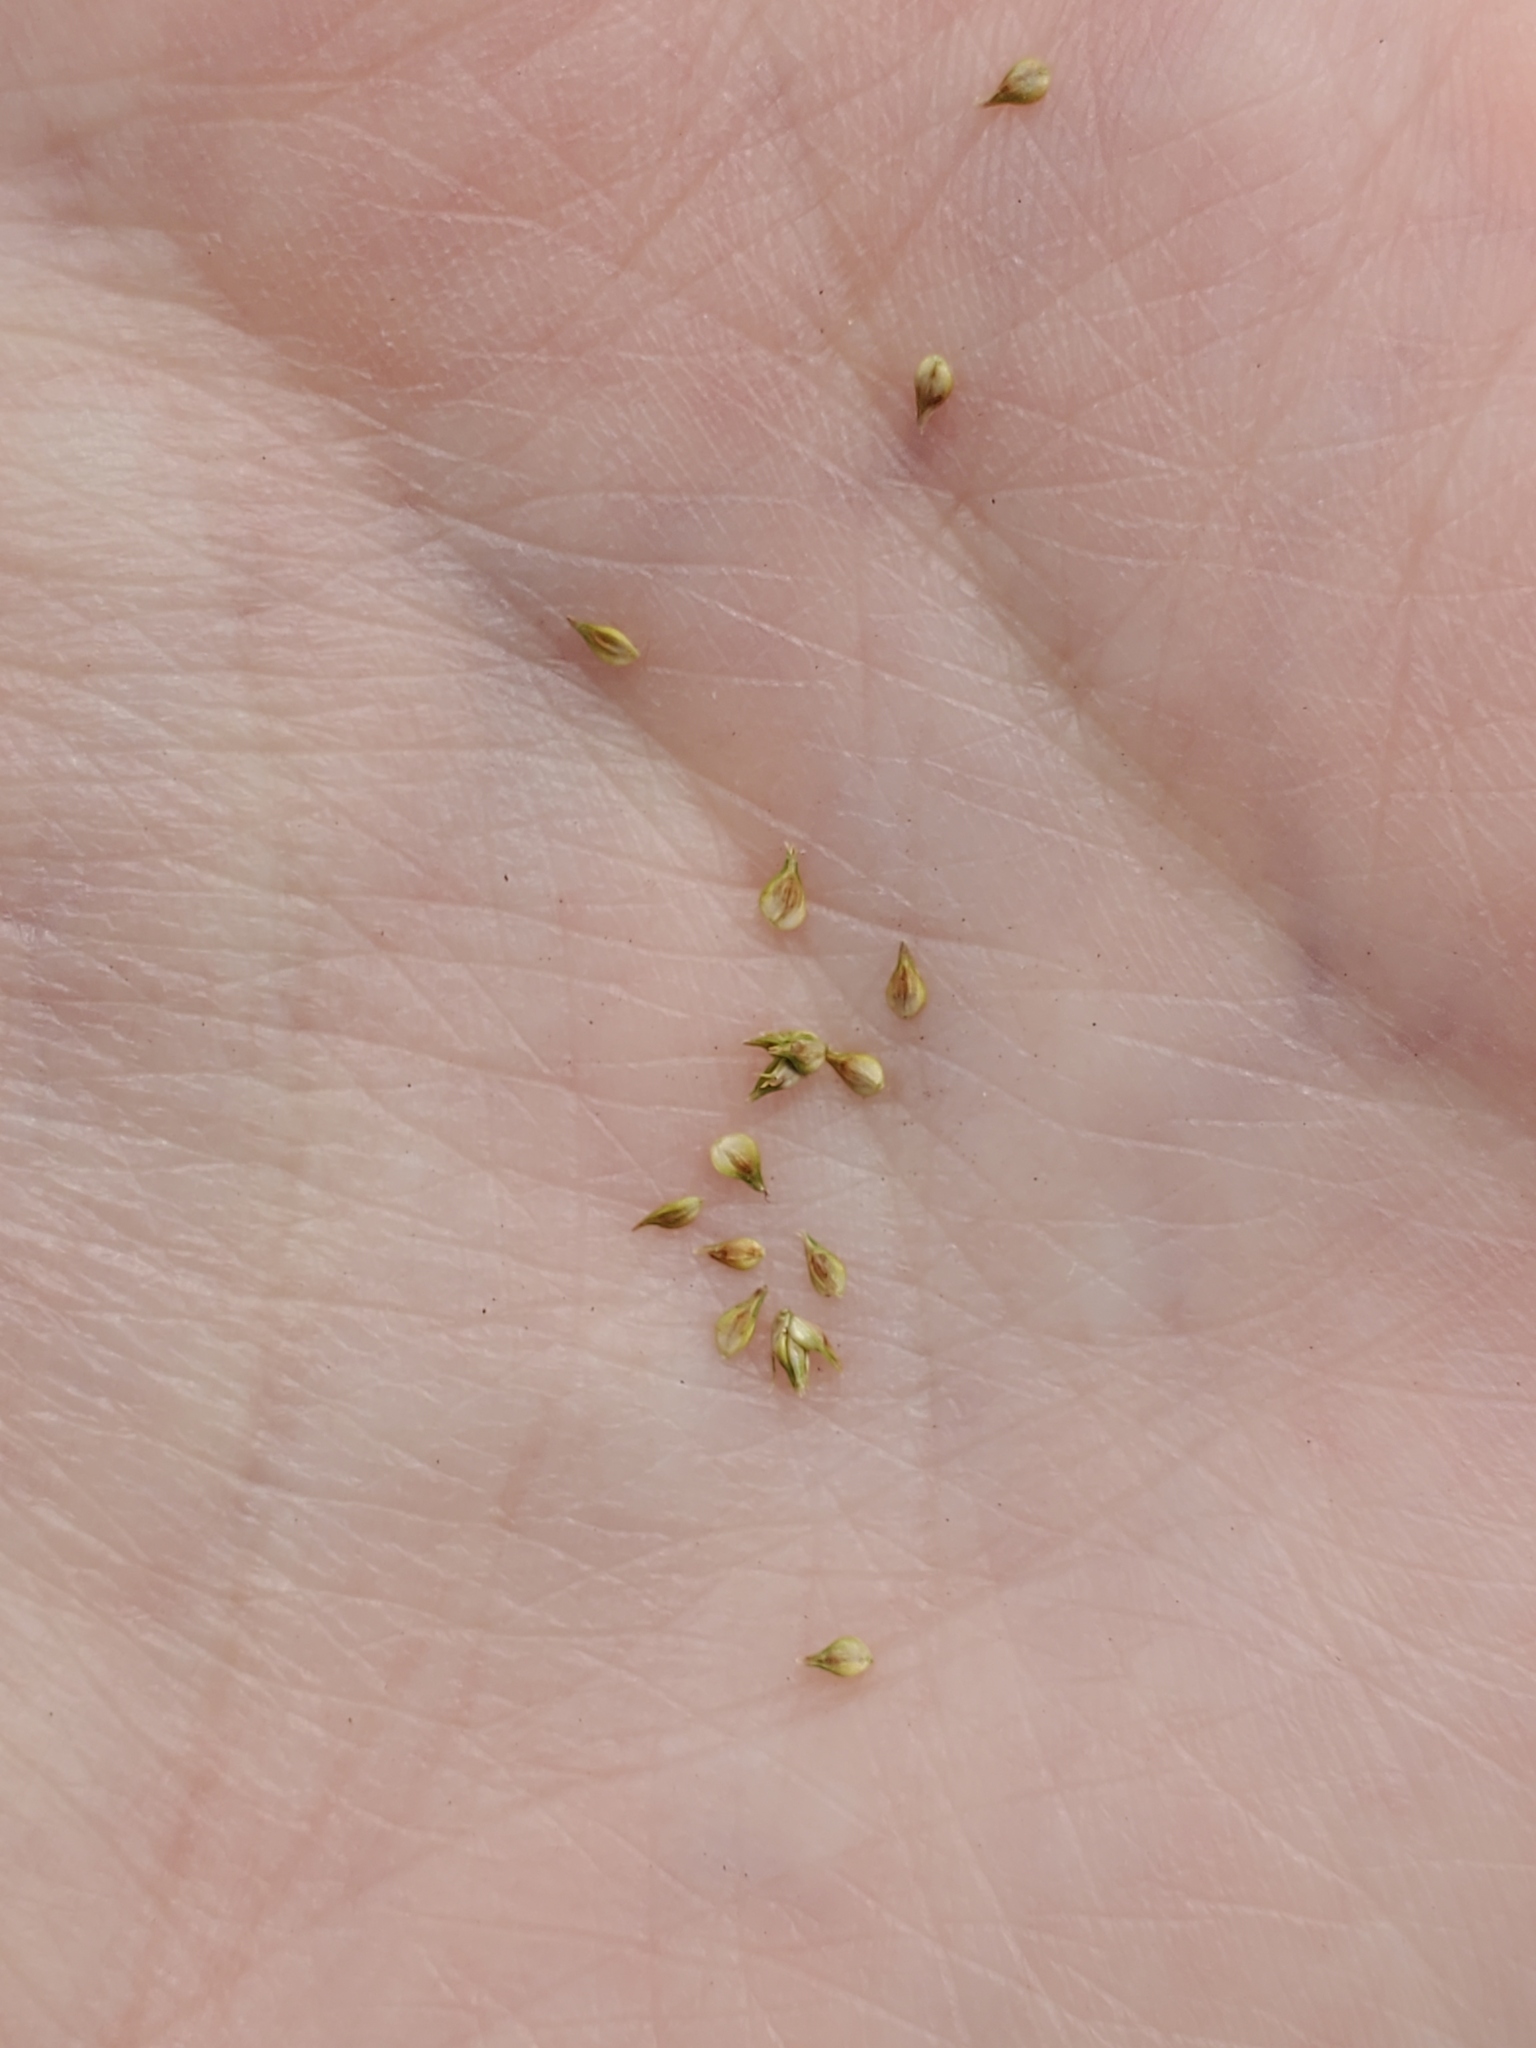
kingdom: Plantae
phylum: Tracheophyta
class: Liliopsida
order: Poales
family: Cyperaceae
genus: Carex
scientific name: Carex vulpinoidea
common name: American fox-sedge
